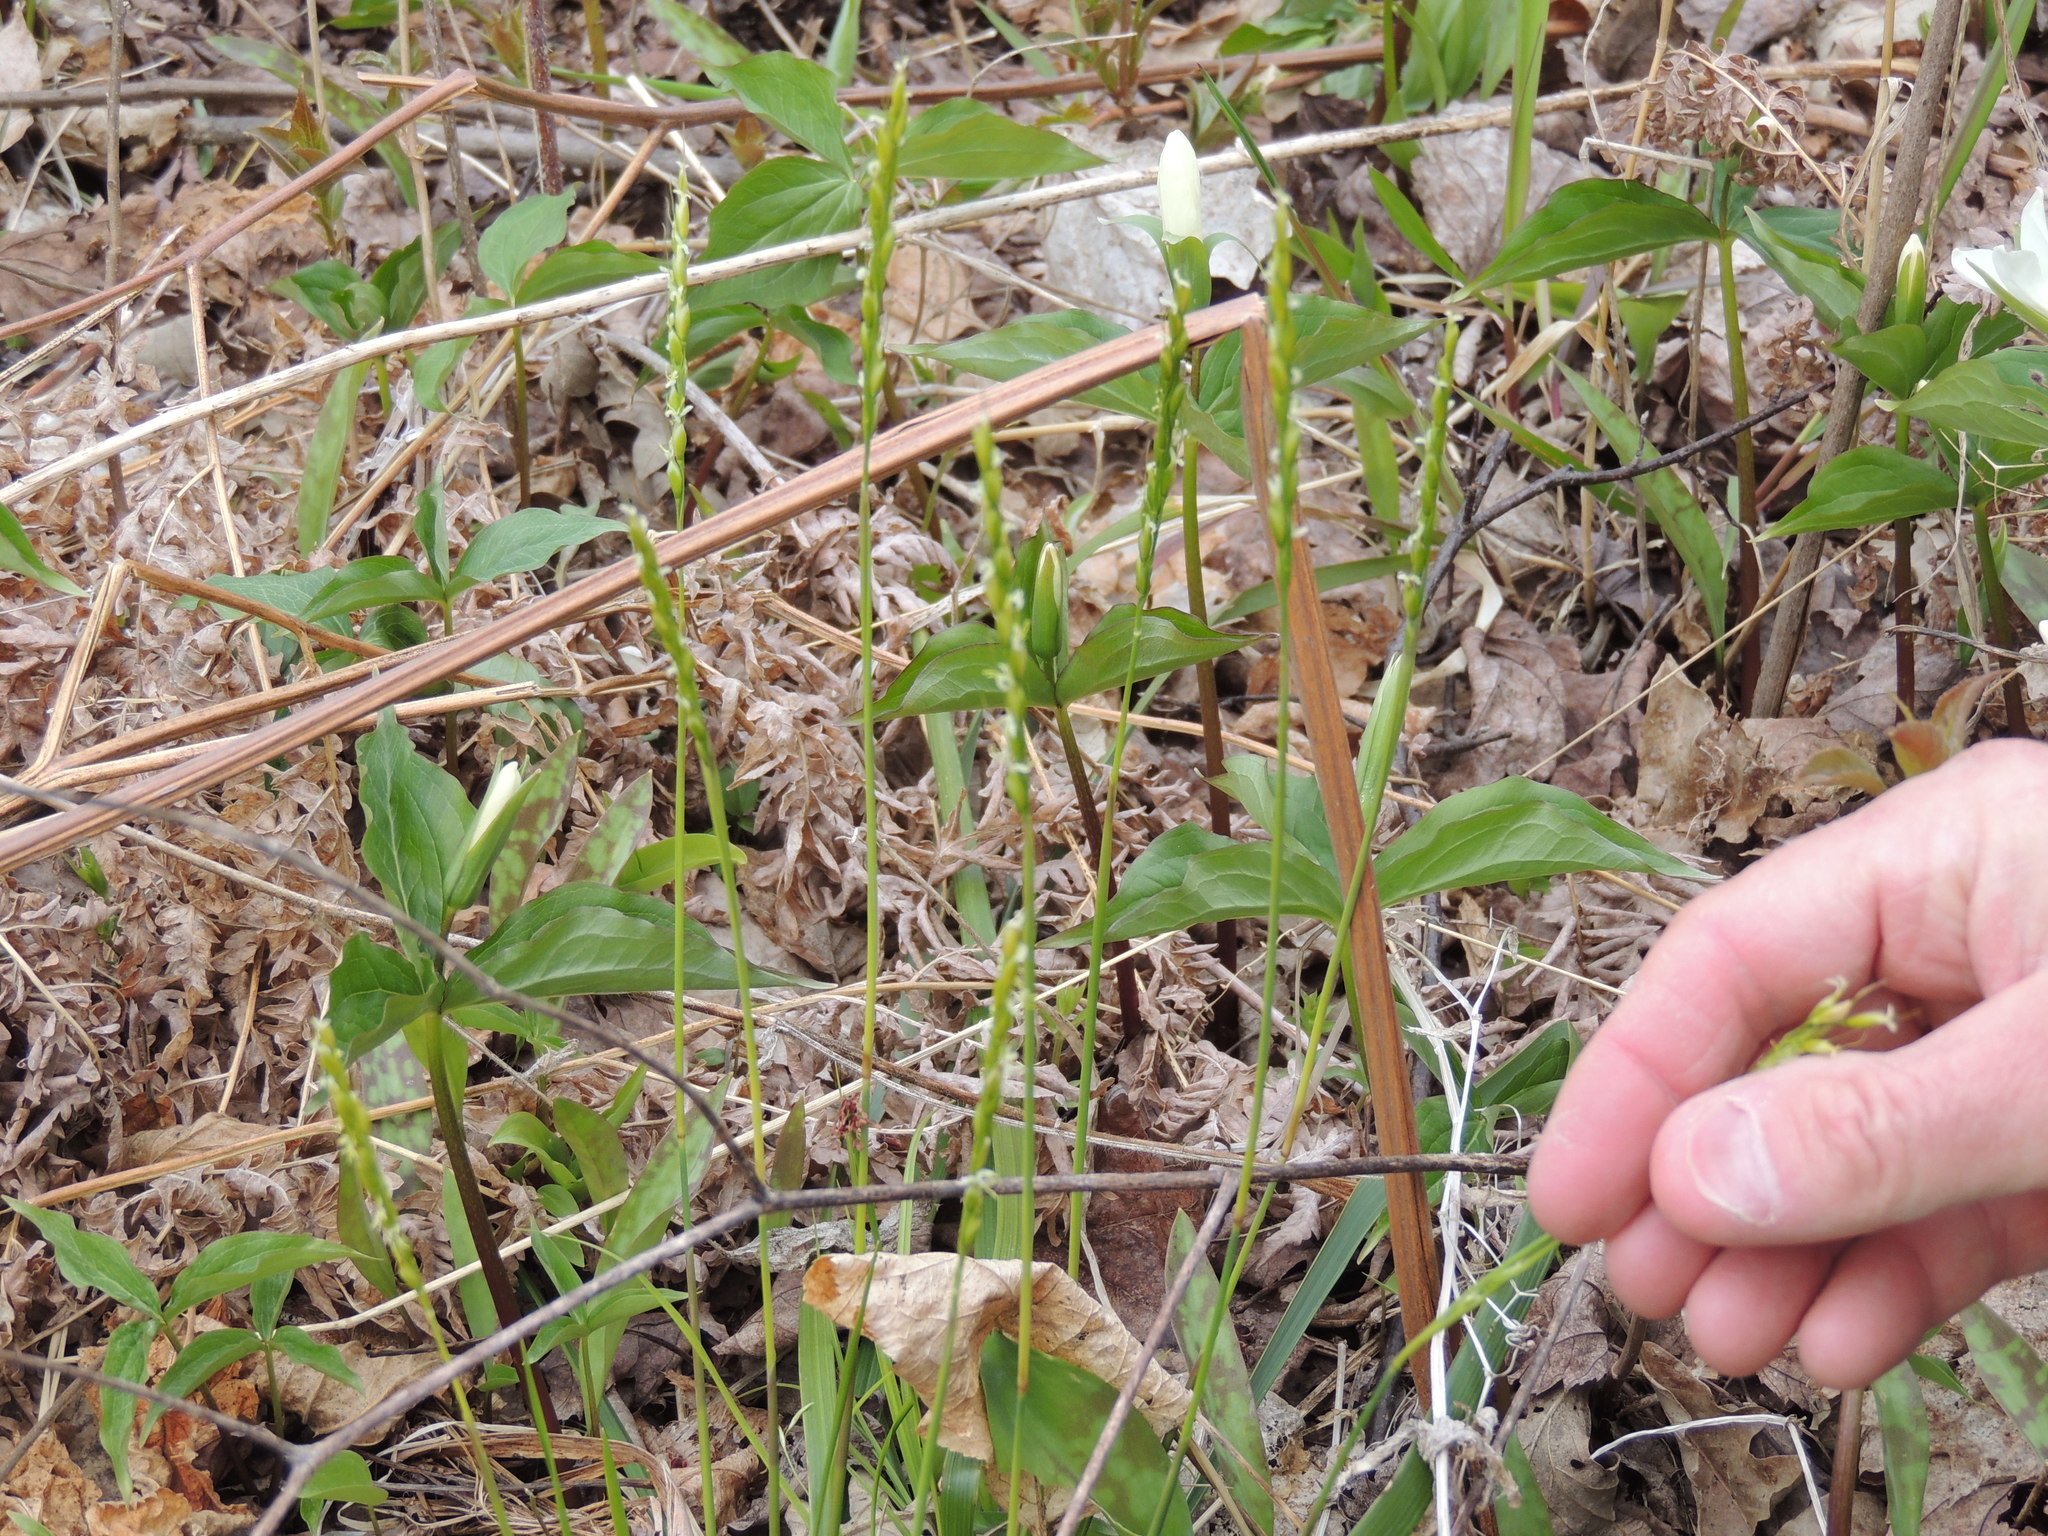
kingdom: Plantae
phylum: Tracheophyta
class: Liliopsida
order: Poales
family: Poaceae
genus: Oryzopsis
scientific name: Oryzopsis asperifolia
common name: Rough-leaved mountain rice
